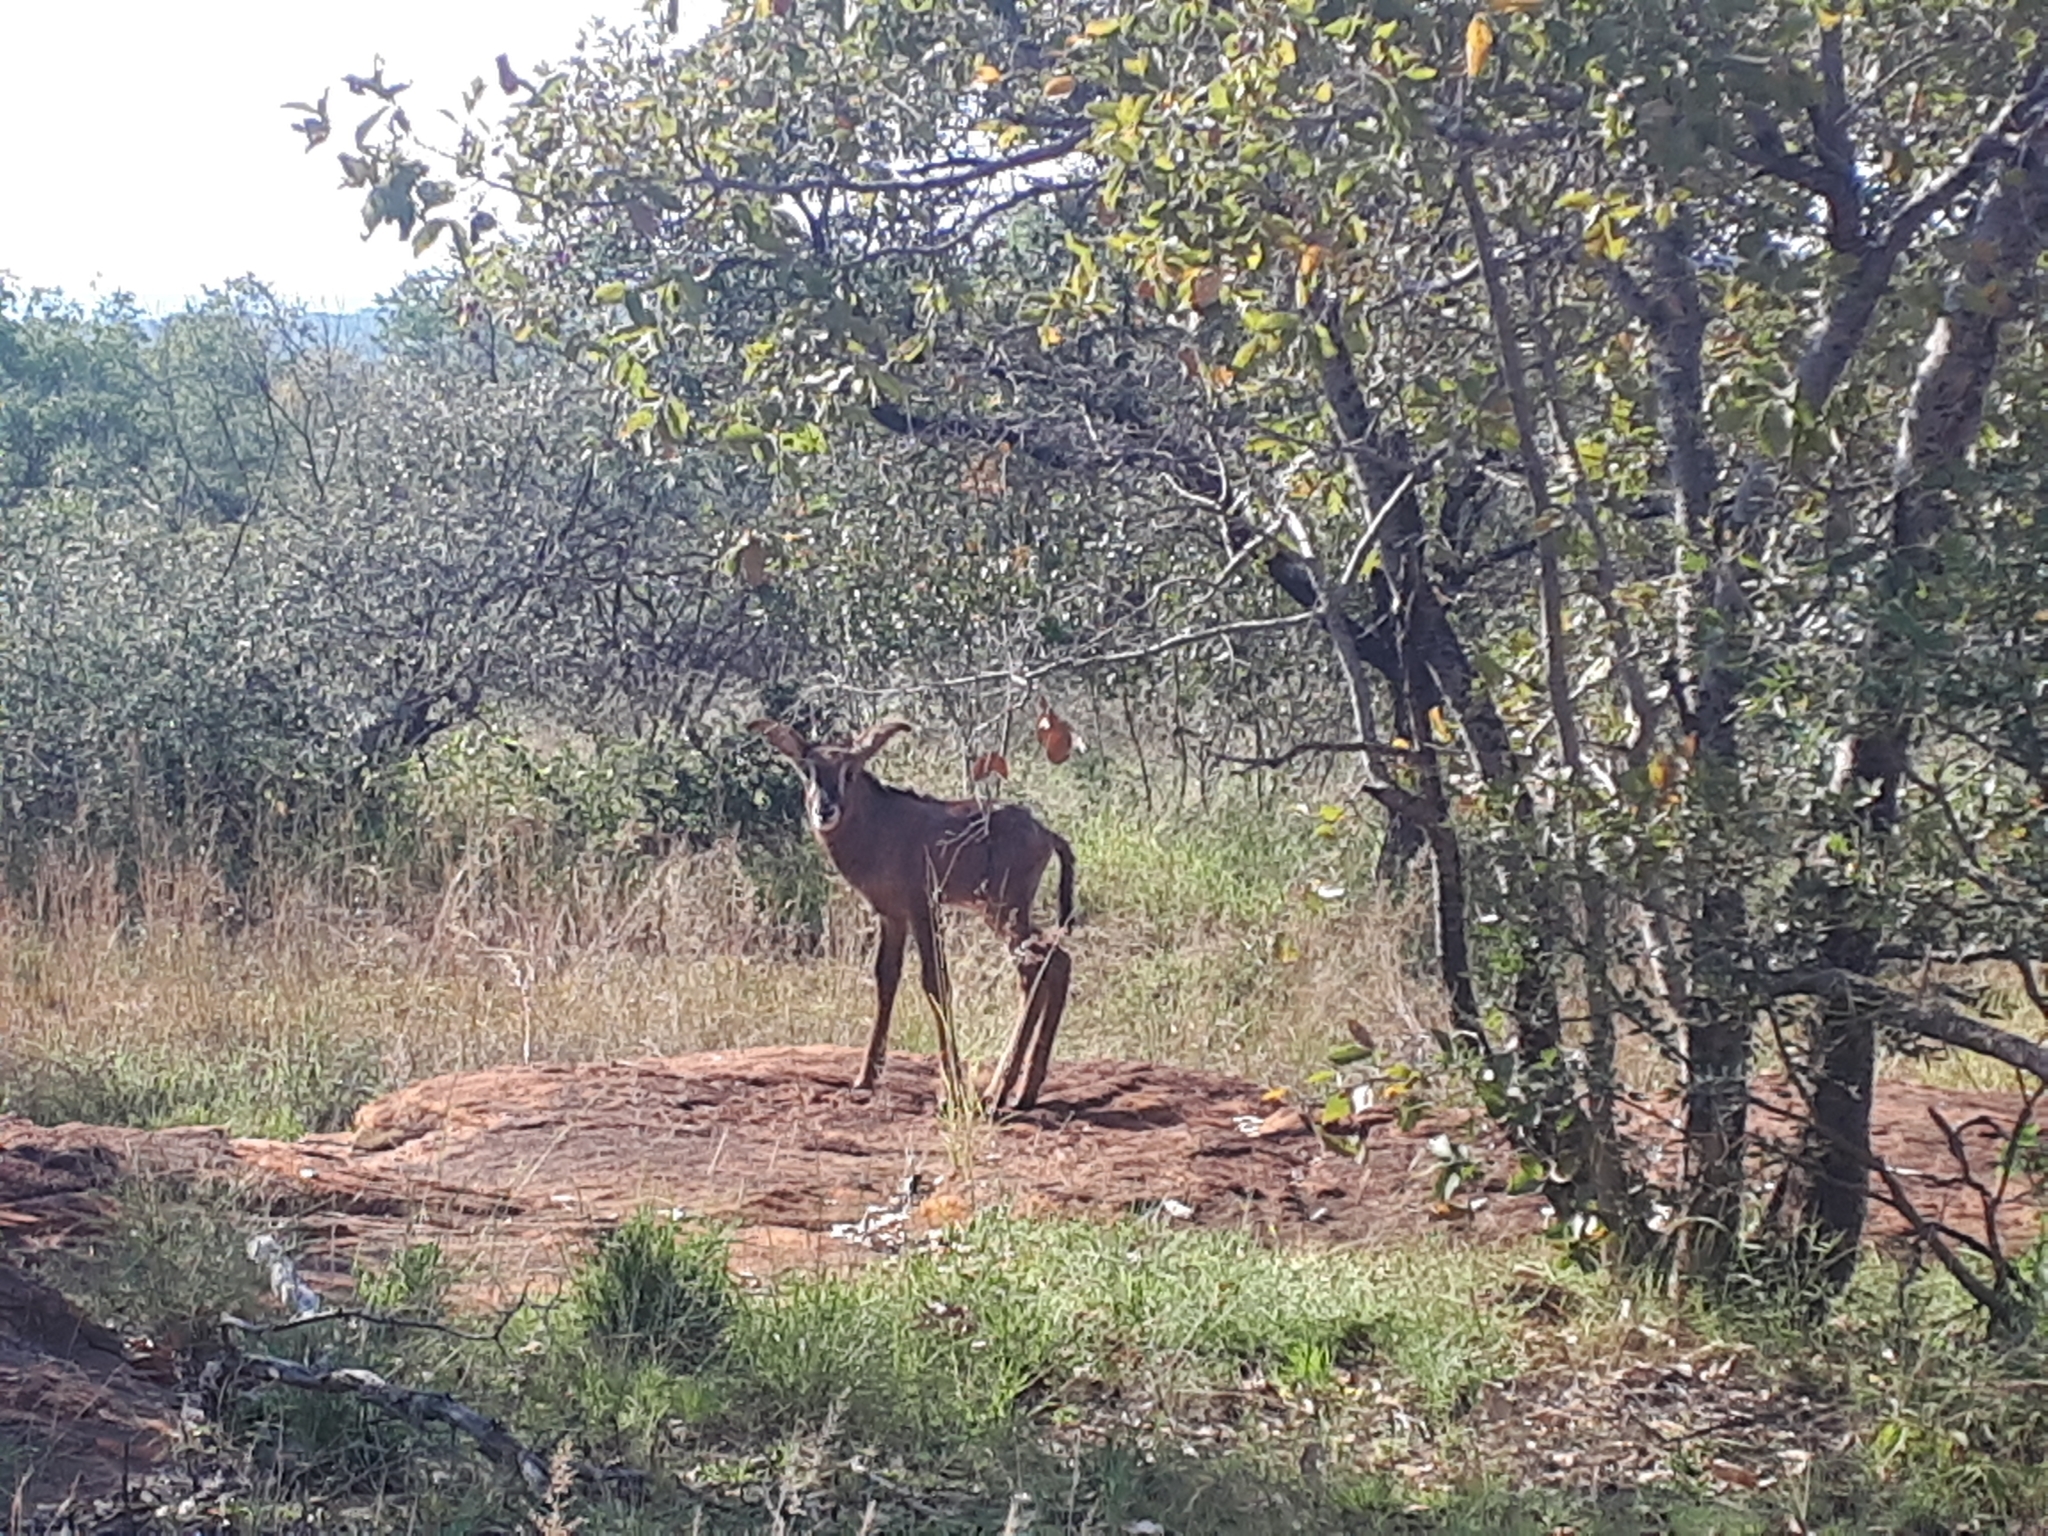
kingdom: Animalia
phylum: Chordata
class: Mammalia
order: Artiodactyla
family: Bovidae
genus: Hippotragus
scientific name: Hippotragus equinus
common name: Roan antelope
